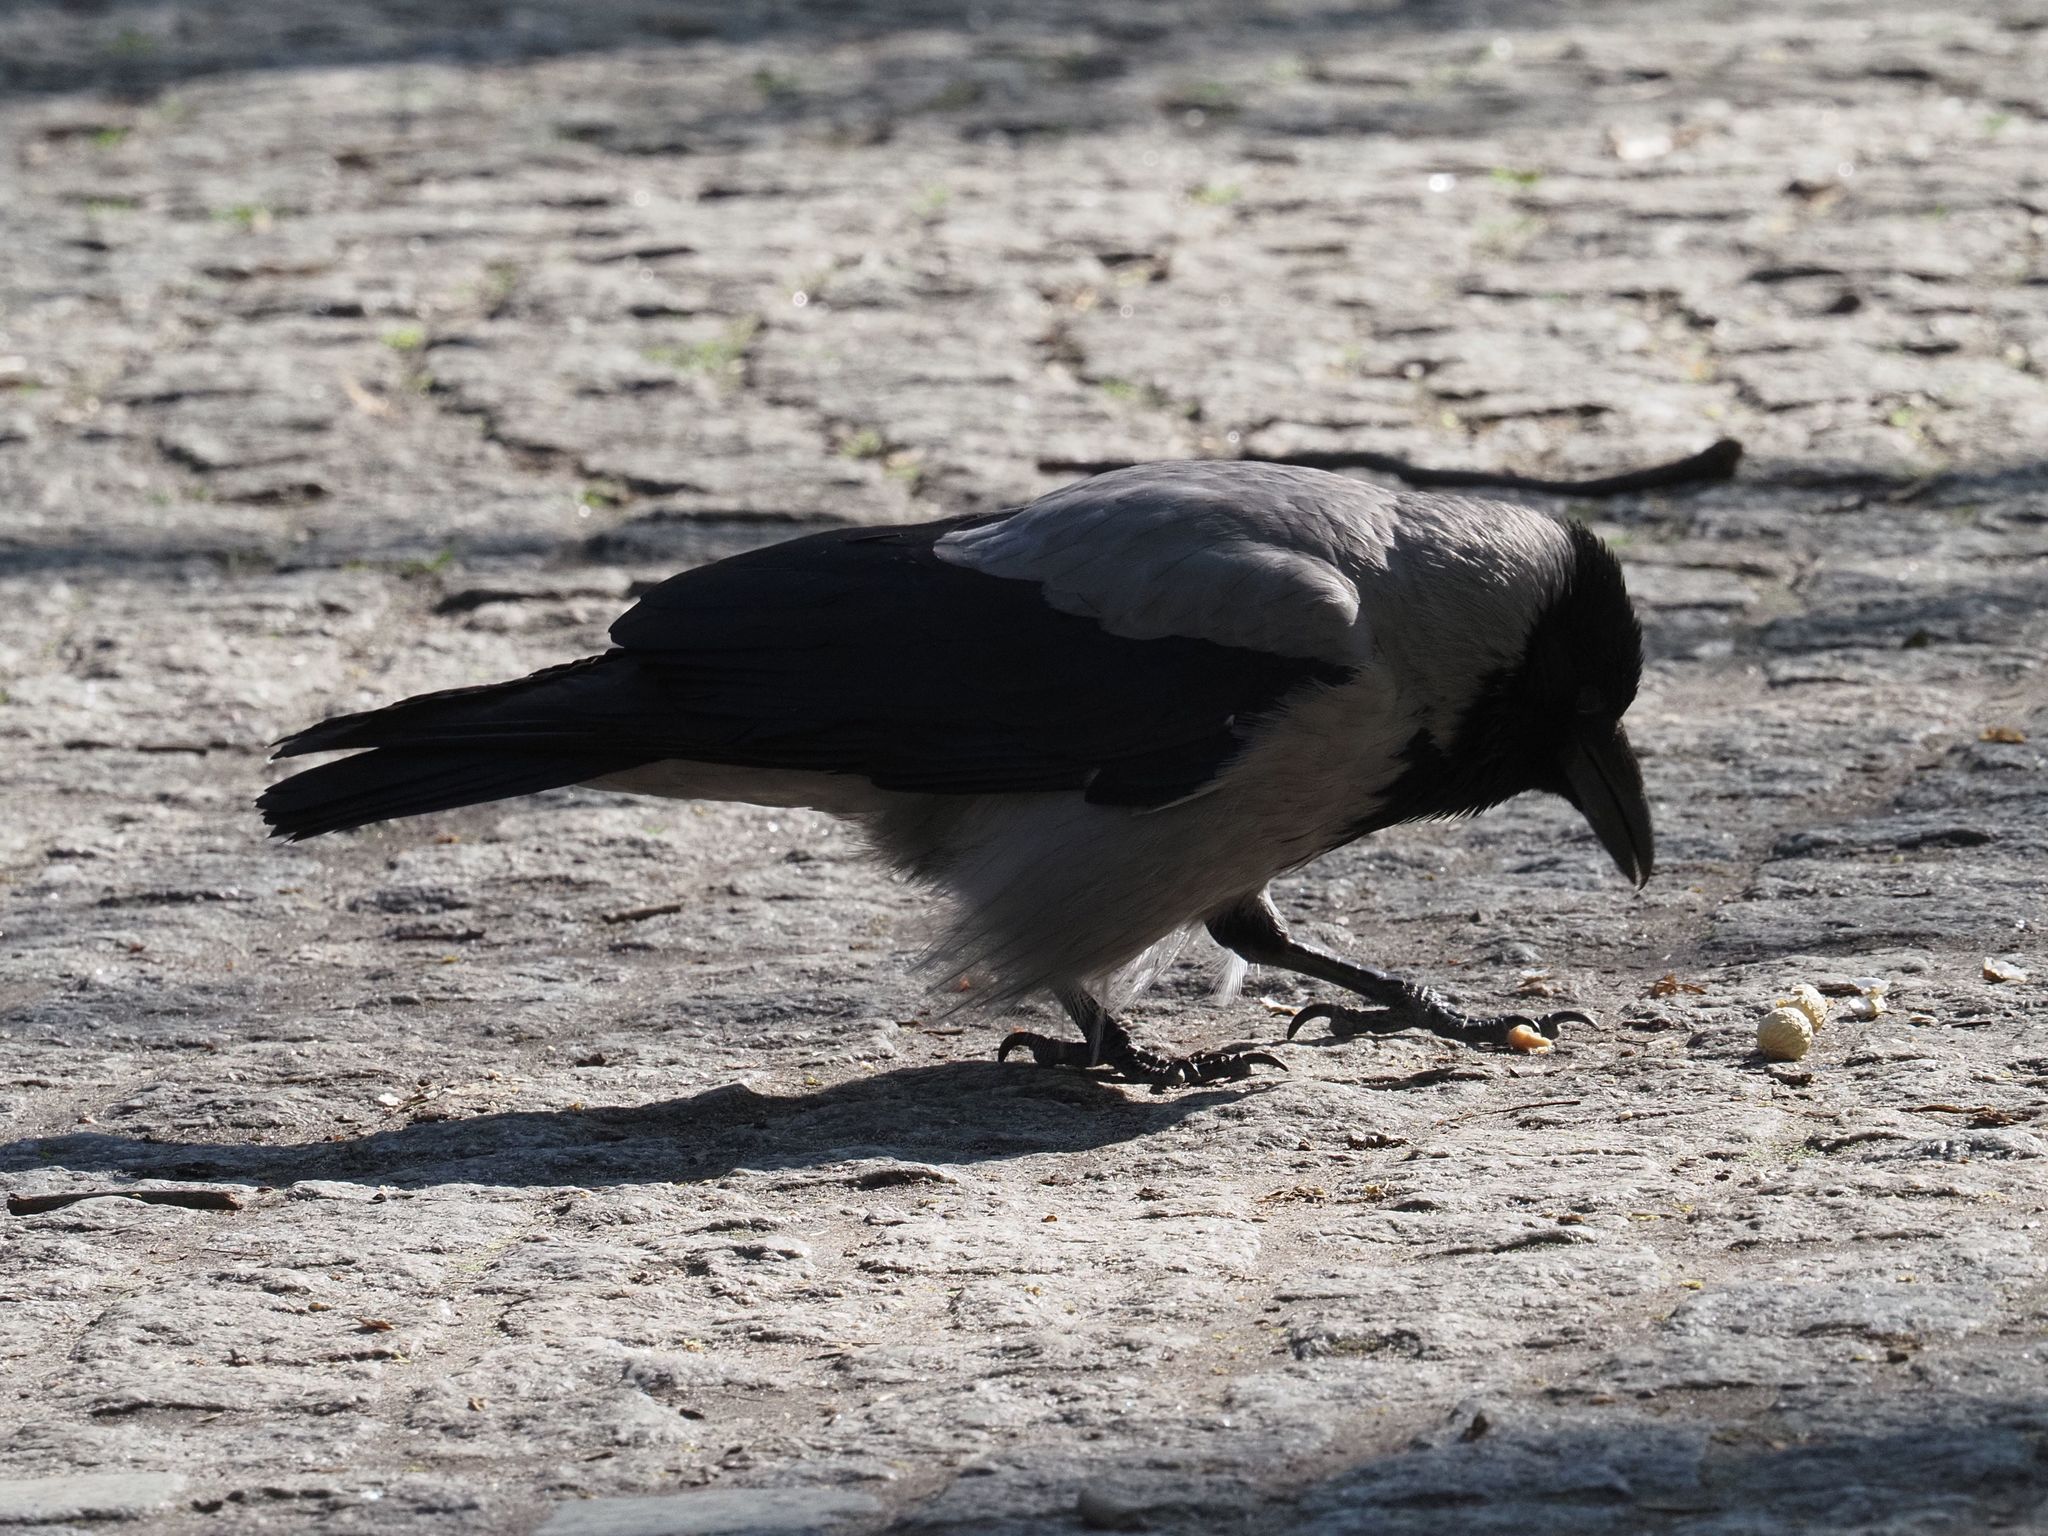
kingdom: Animalia
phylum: Chordata
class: Aves
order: Passeriformes
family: Corvidae
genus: Corvus
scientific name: Corvus cornix
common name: Hooded crow
